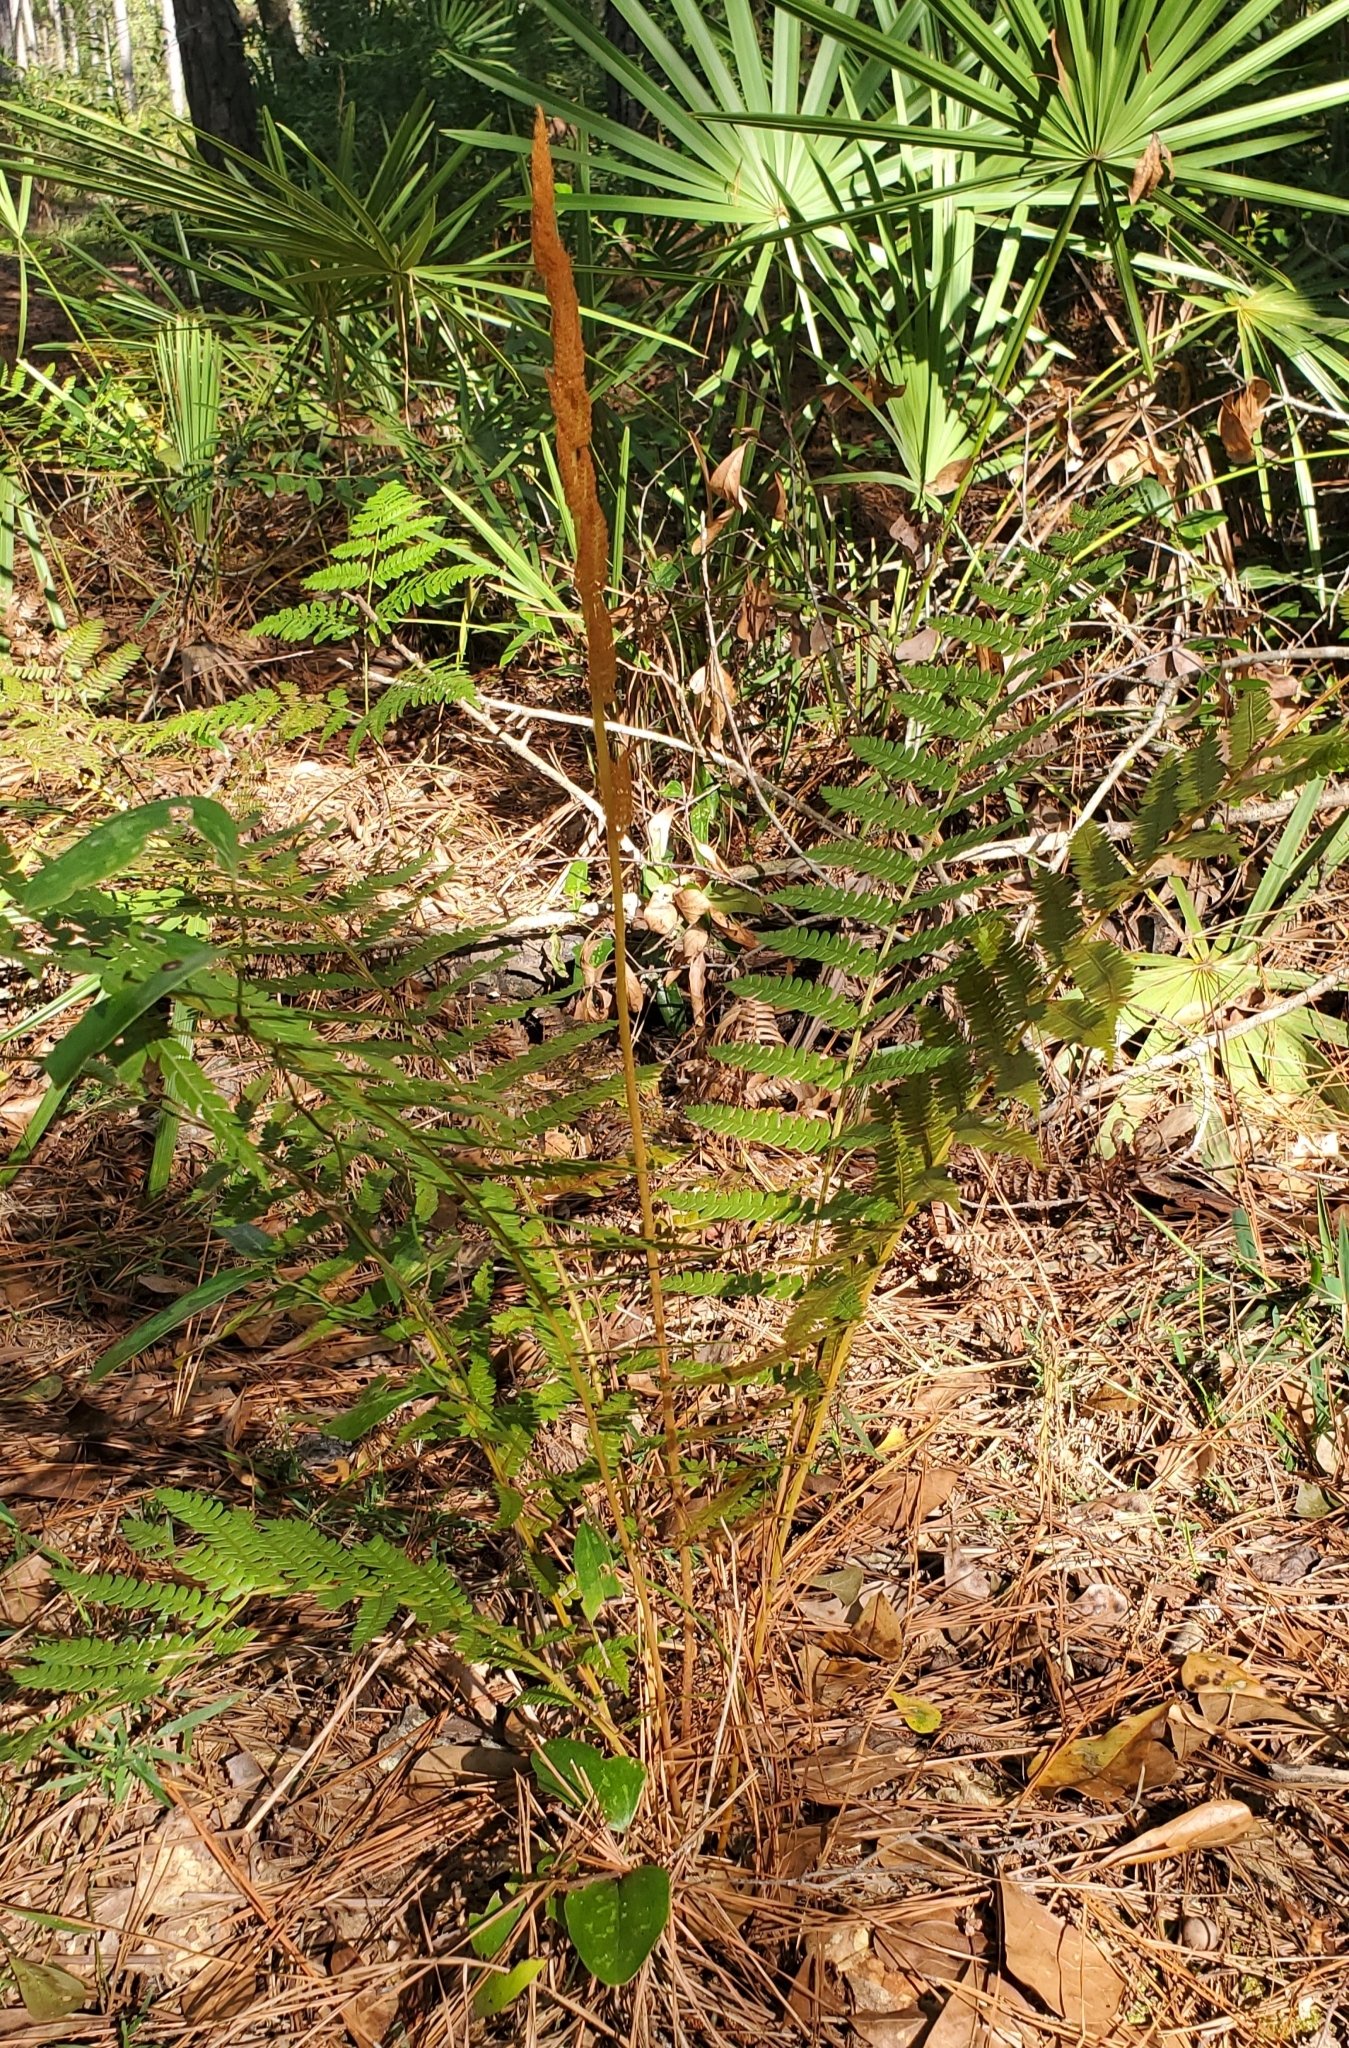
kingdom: Plantae
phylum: Tracheophyta
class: Polypodiopsida
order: Osmundales
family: Osmundaceae
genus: Osmundastrum
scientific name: Osmundastrum cinnamomeum
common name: Cinnamon fern
